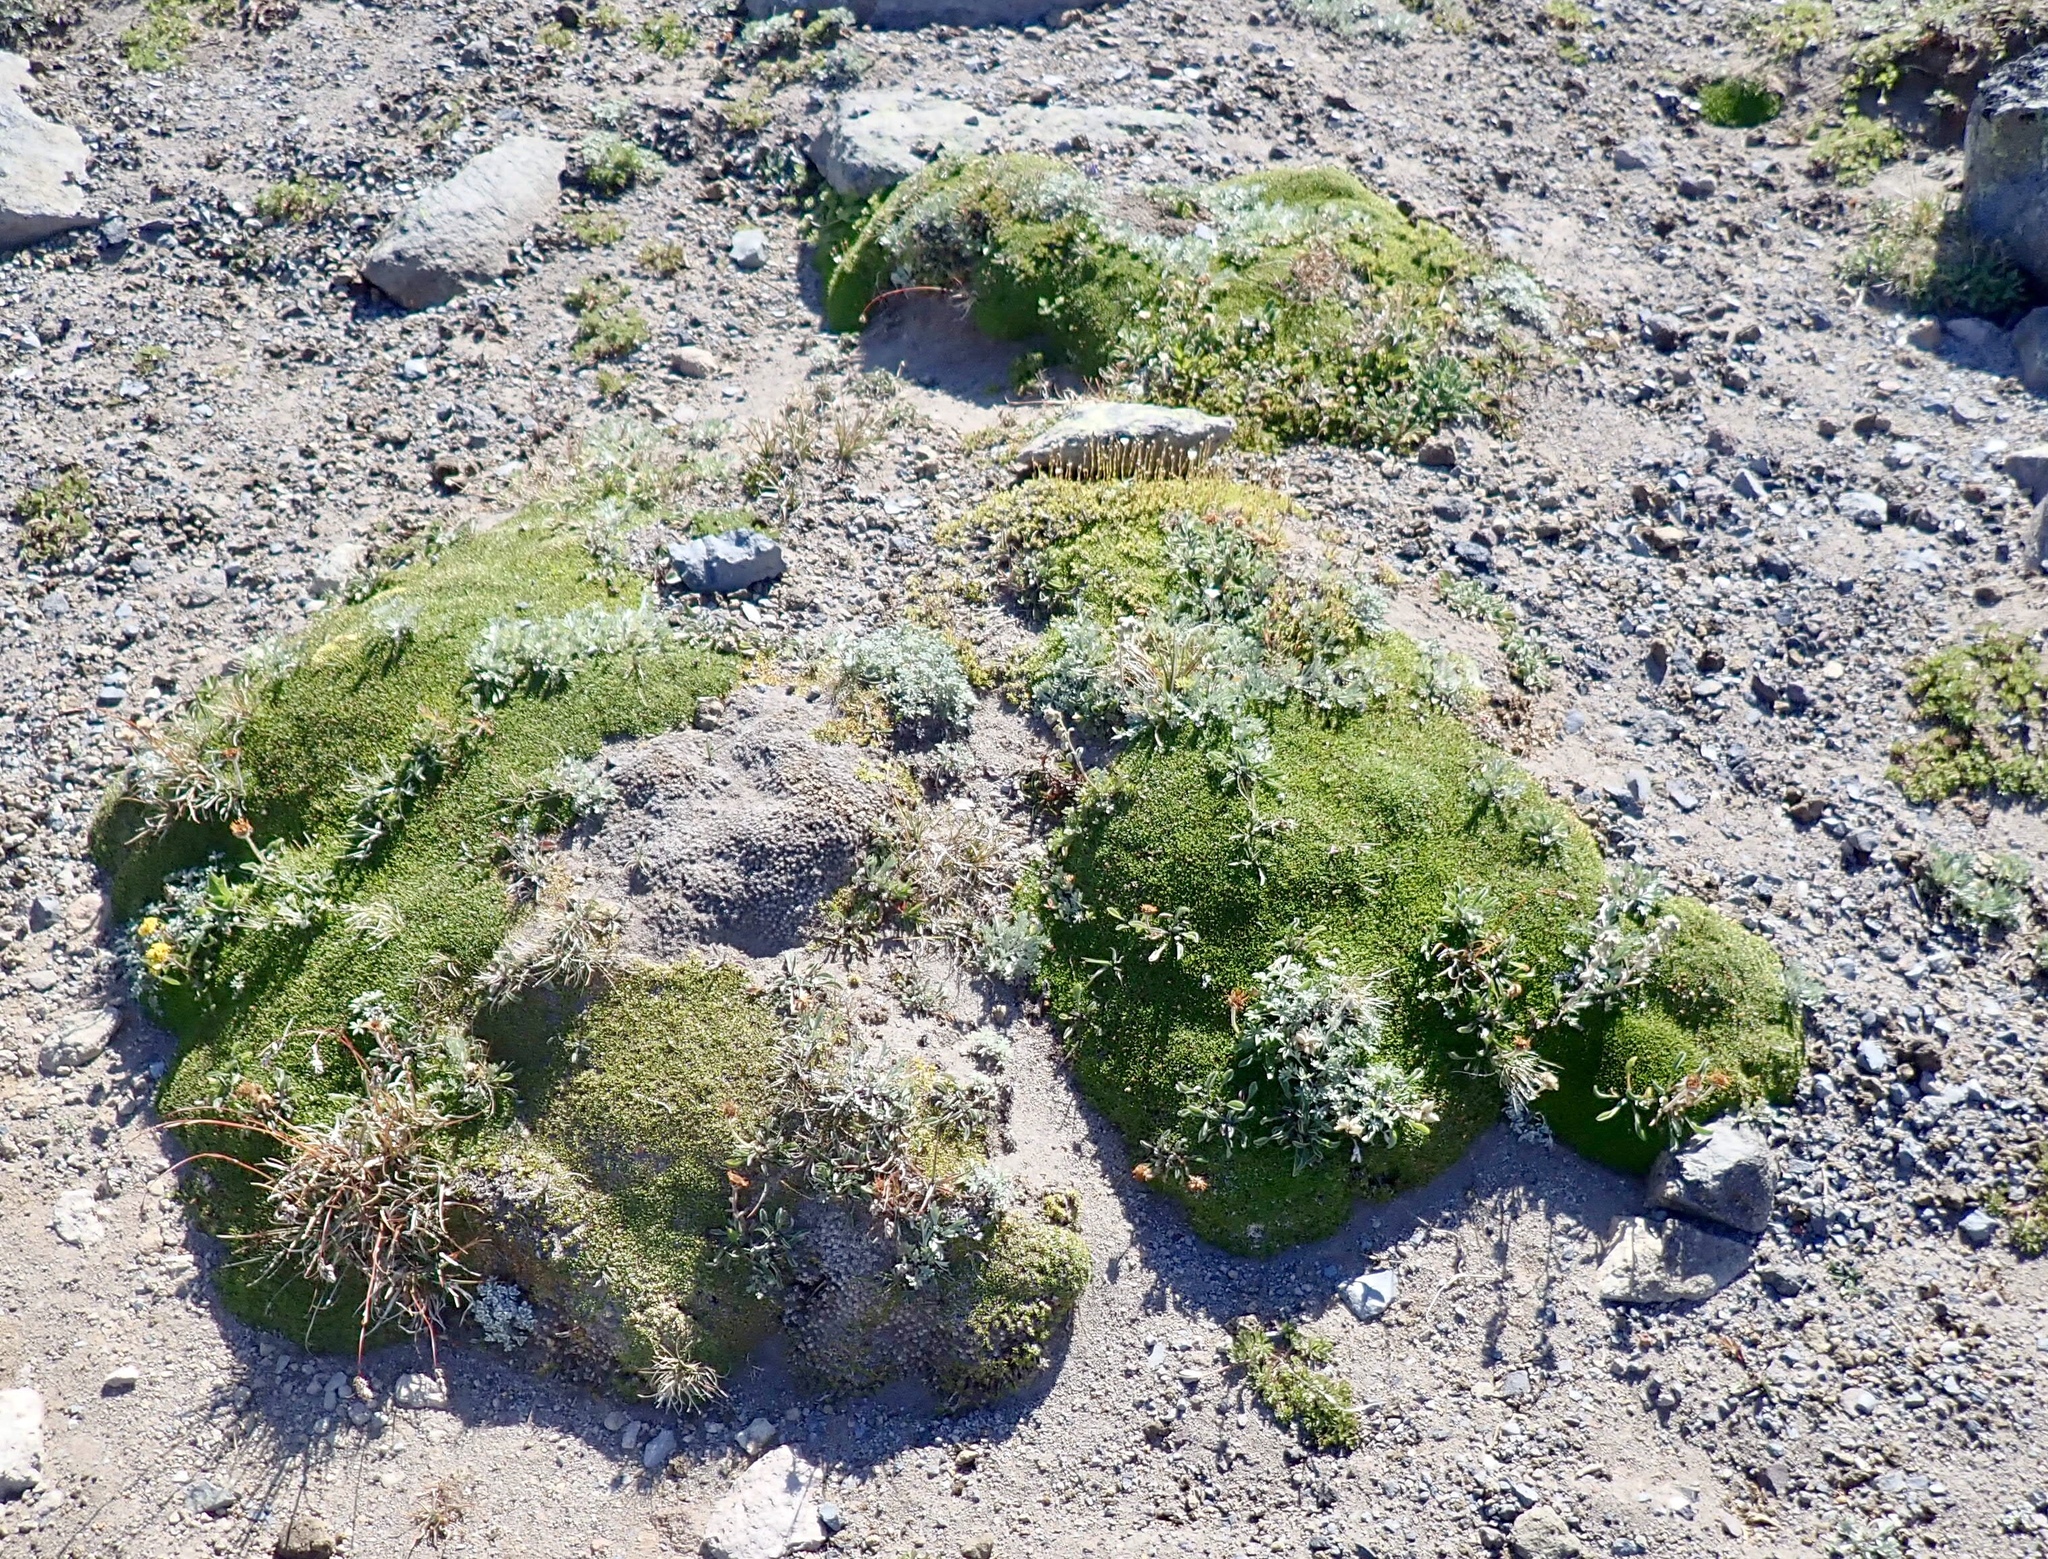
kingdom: Plantae
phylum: Tracheophyta
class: Magnoliopsida
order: Caryophyllales
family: Caryophyllaceae
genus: Silene
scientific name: Silene acaulis
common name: Moss campion
